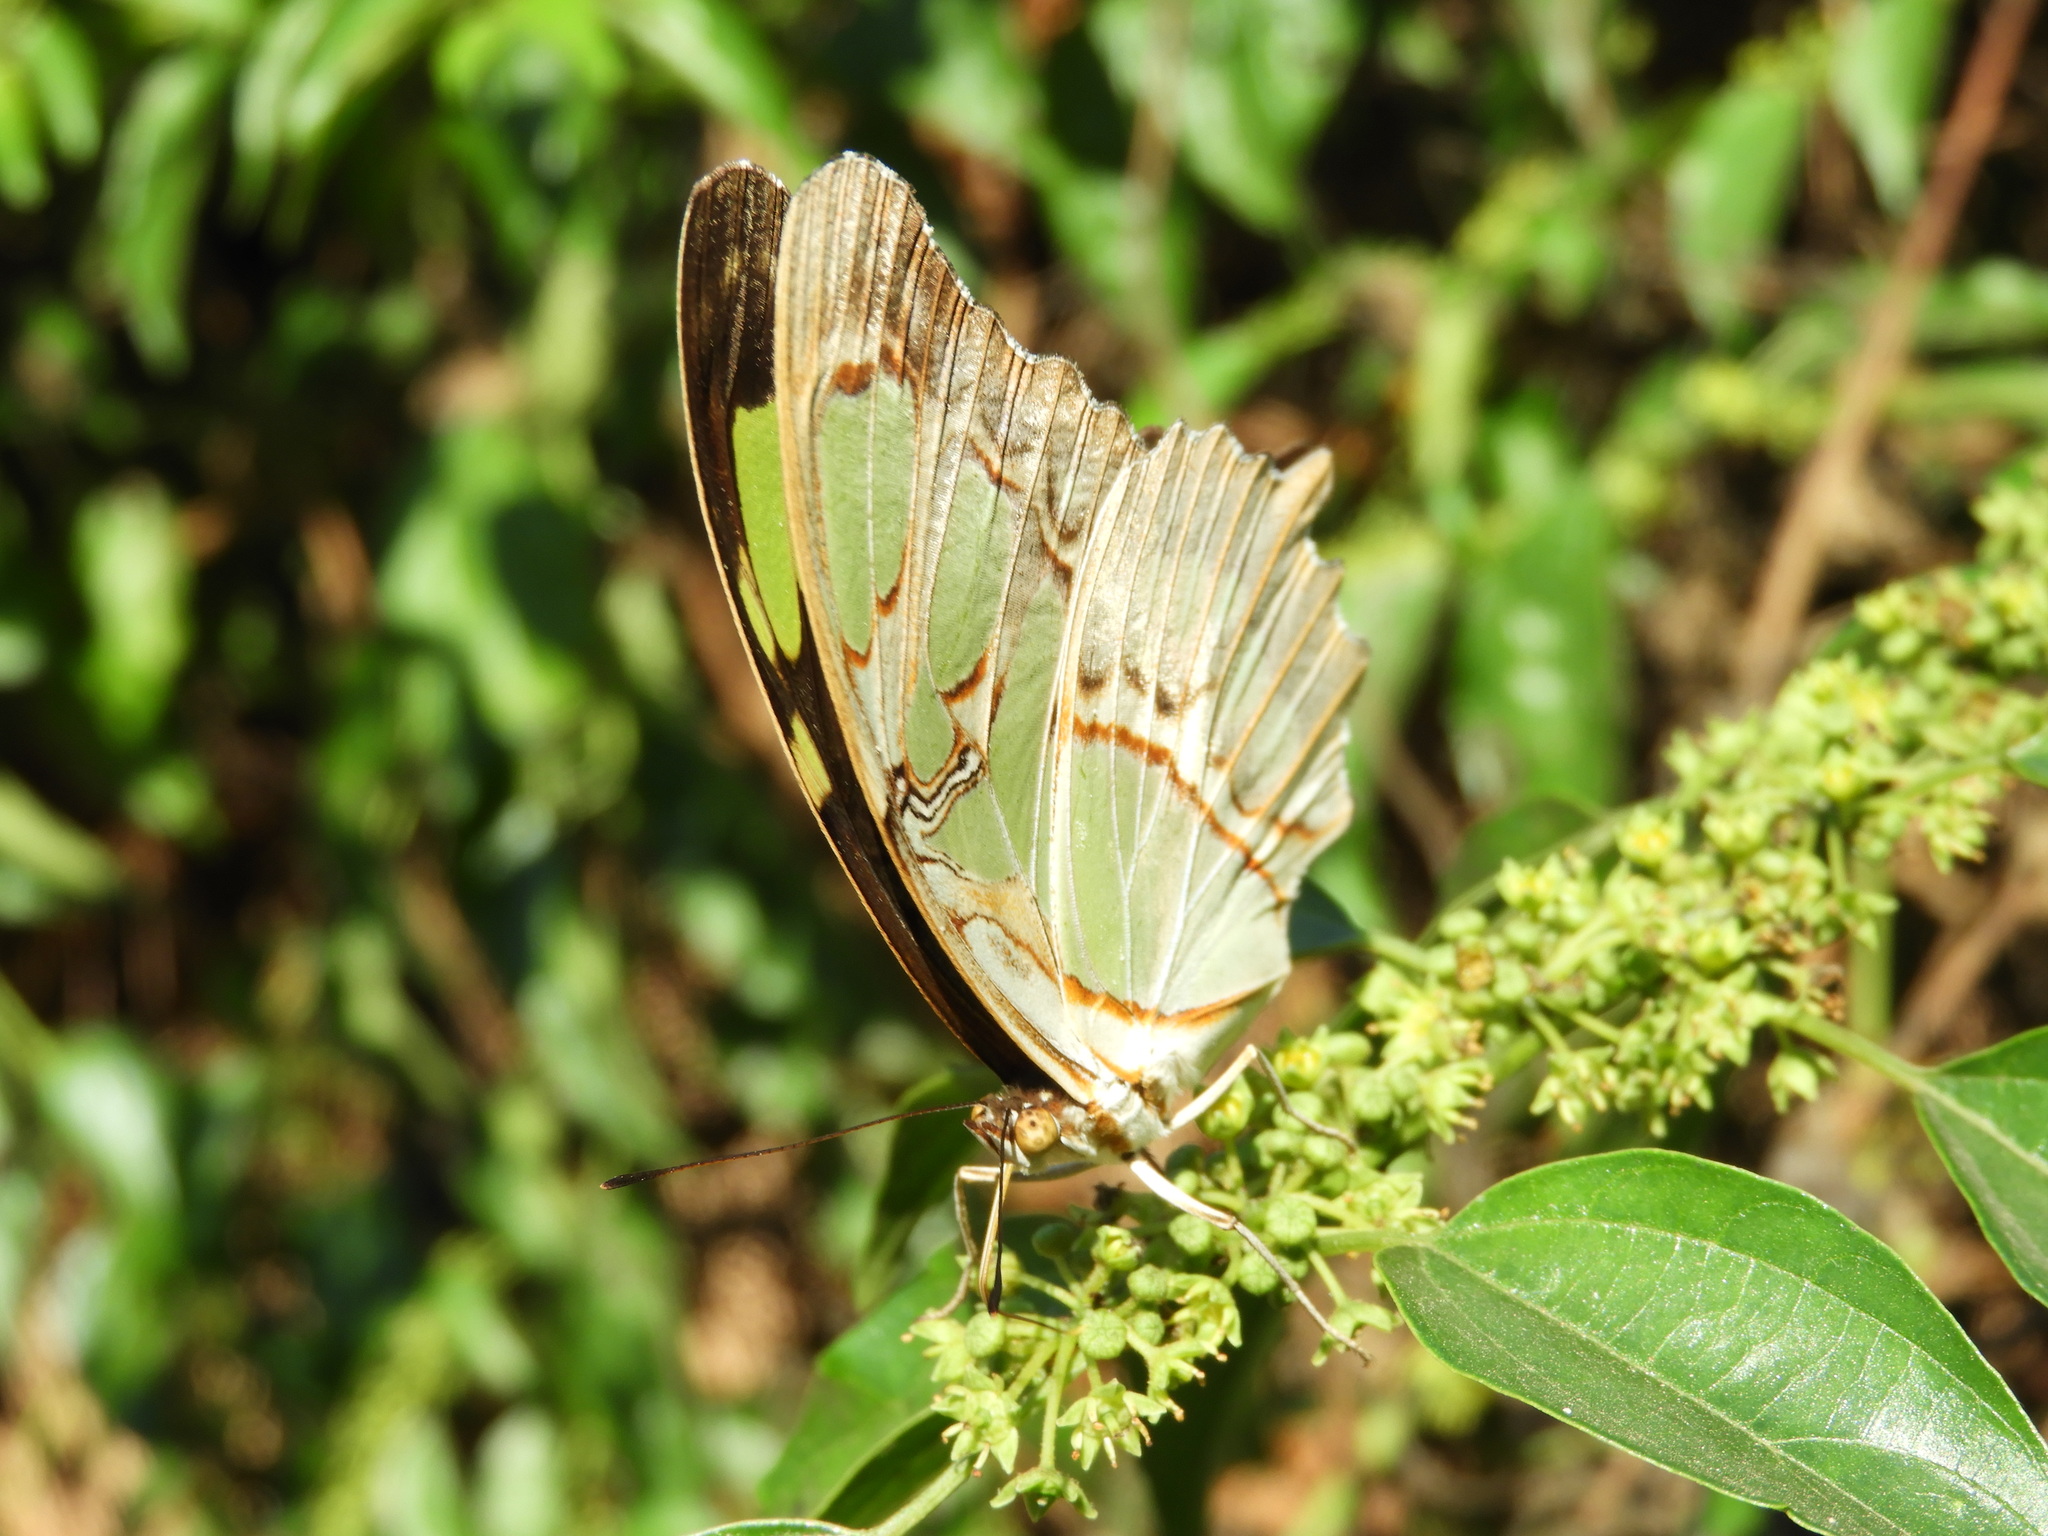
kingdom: Animalia
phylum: Arthropoda
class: Insecta
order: Lepidoptera
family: Nymphalidae
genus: Siproeta
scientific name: Siproeta stelenes
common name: Malachite
